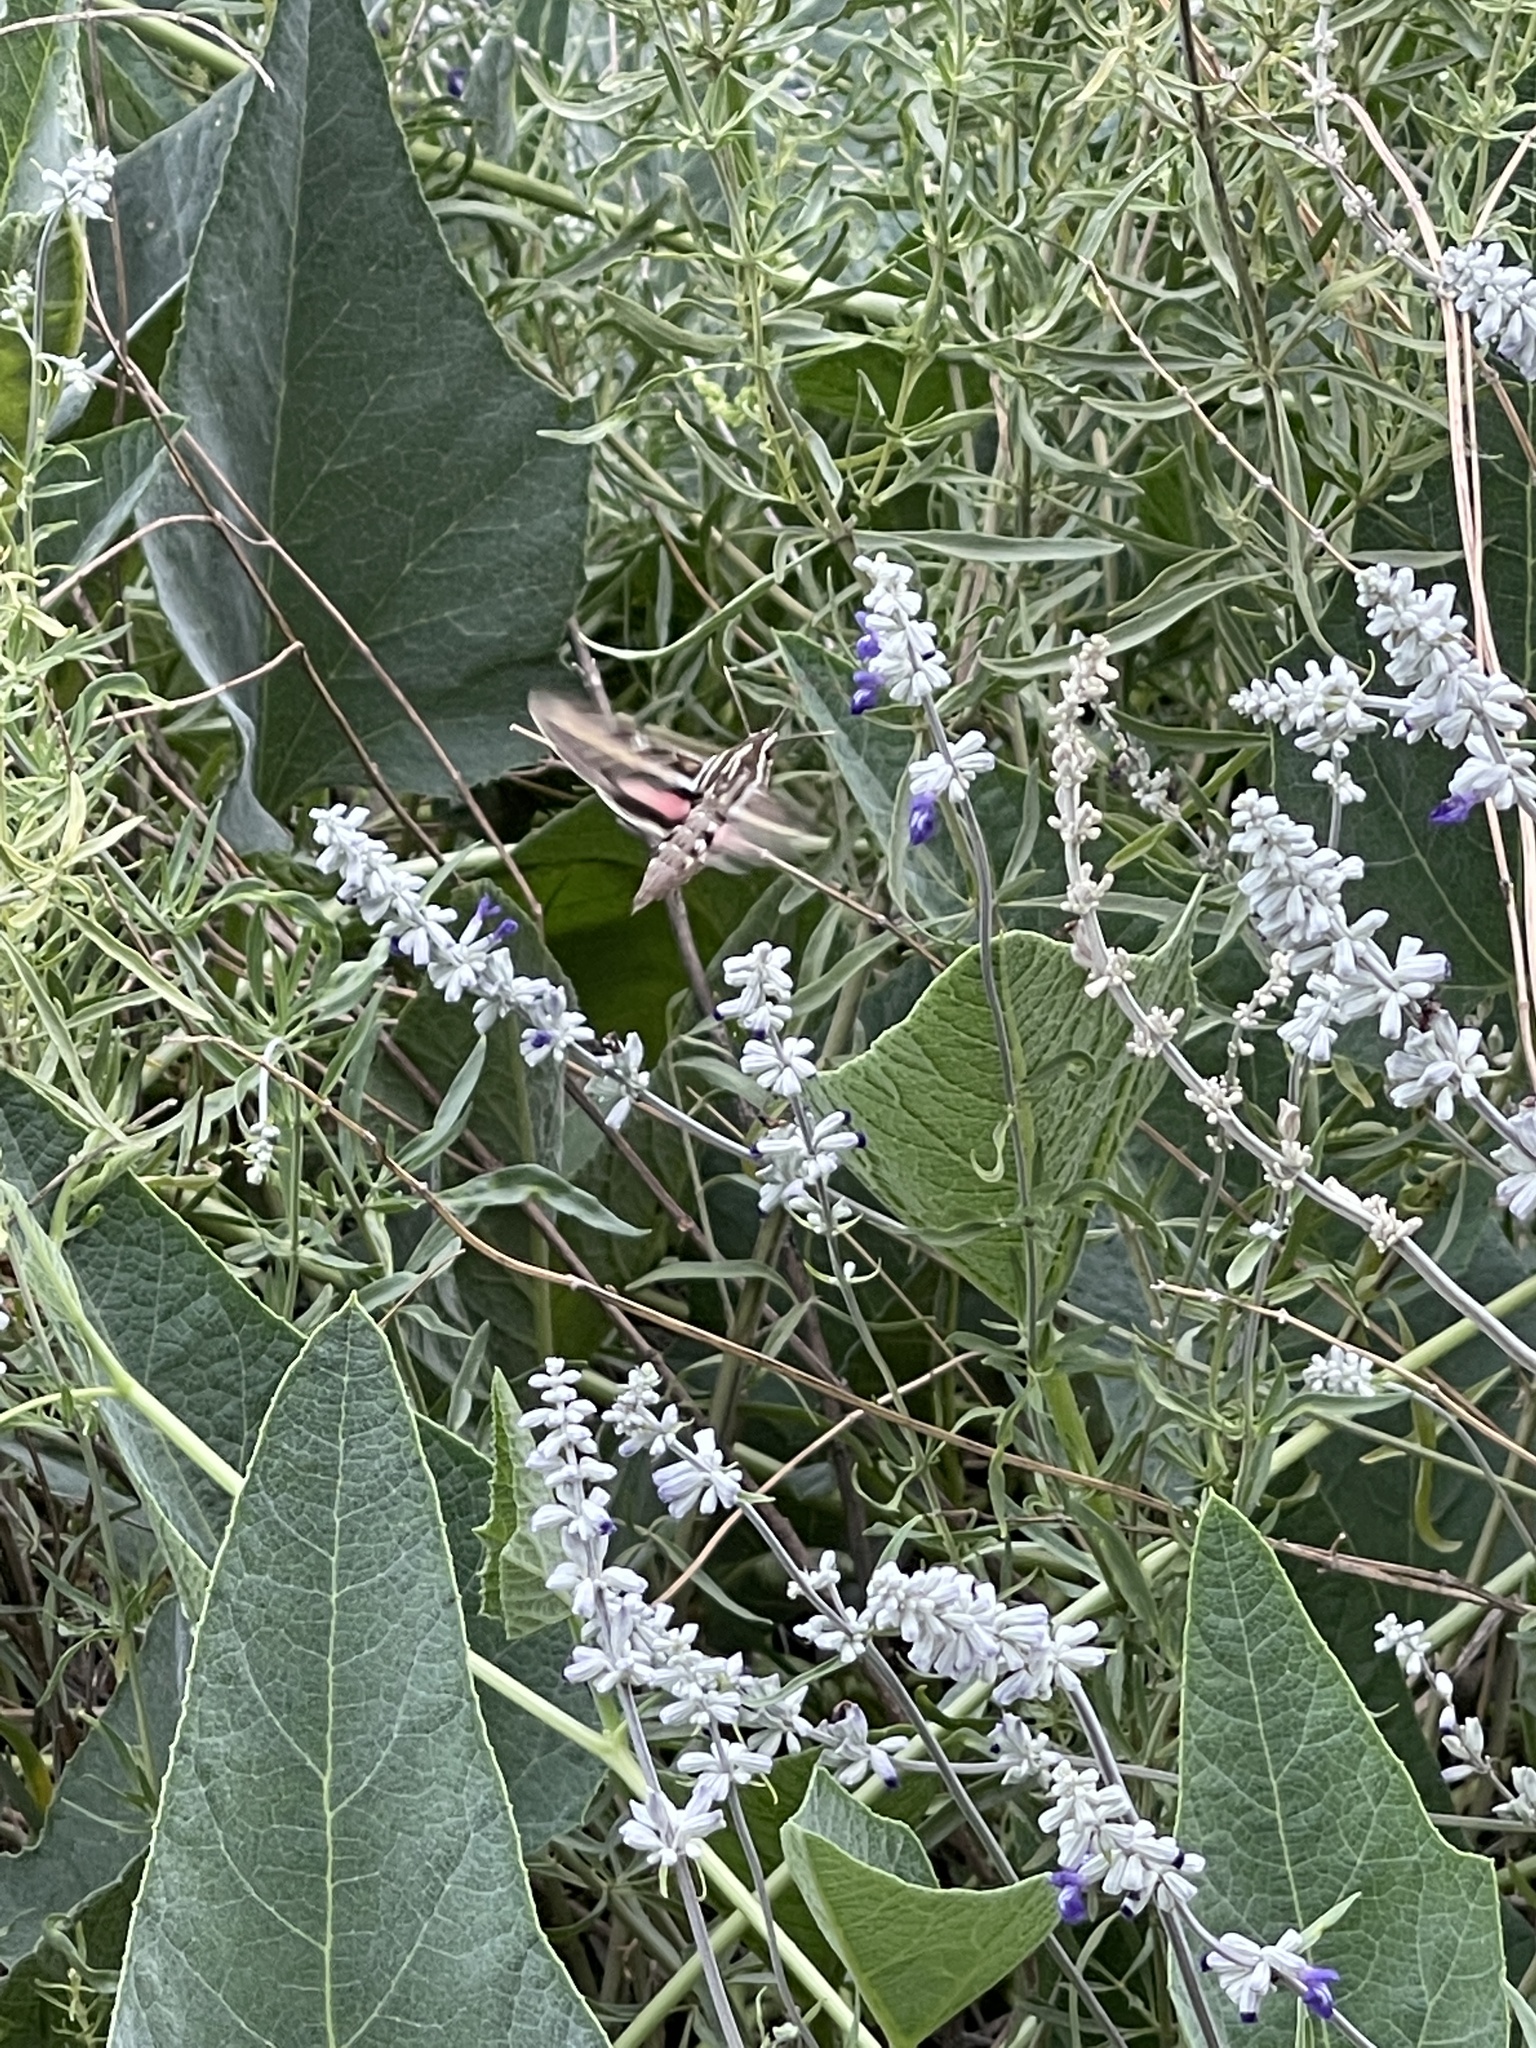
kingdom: Animalia
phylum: Arthropoda
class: Insecta
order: Lepidoptera
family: Sphingidae
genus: Hyles
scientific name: Hyles lineata
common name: White-lined sphinx
